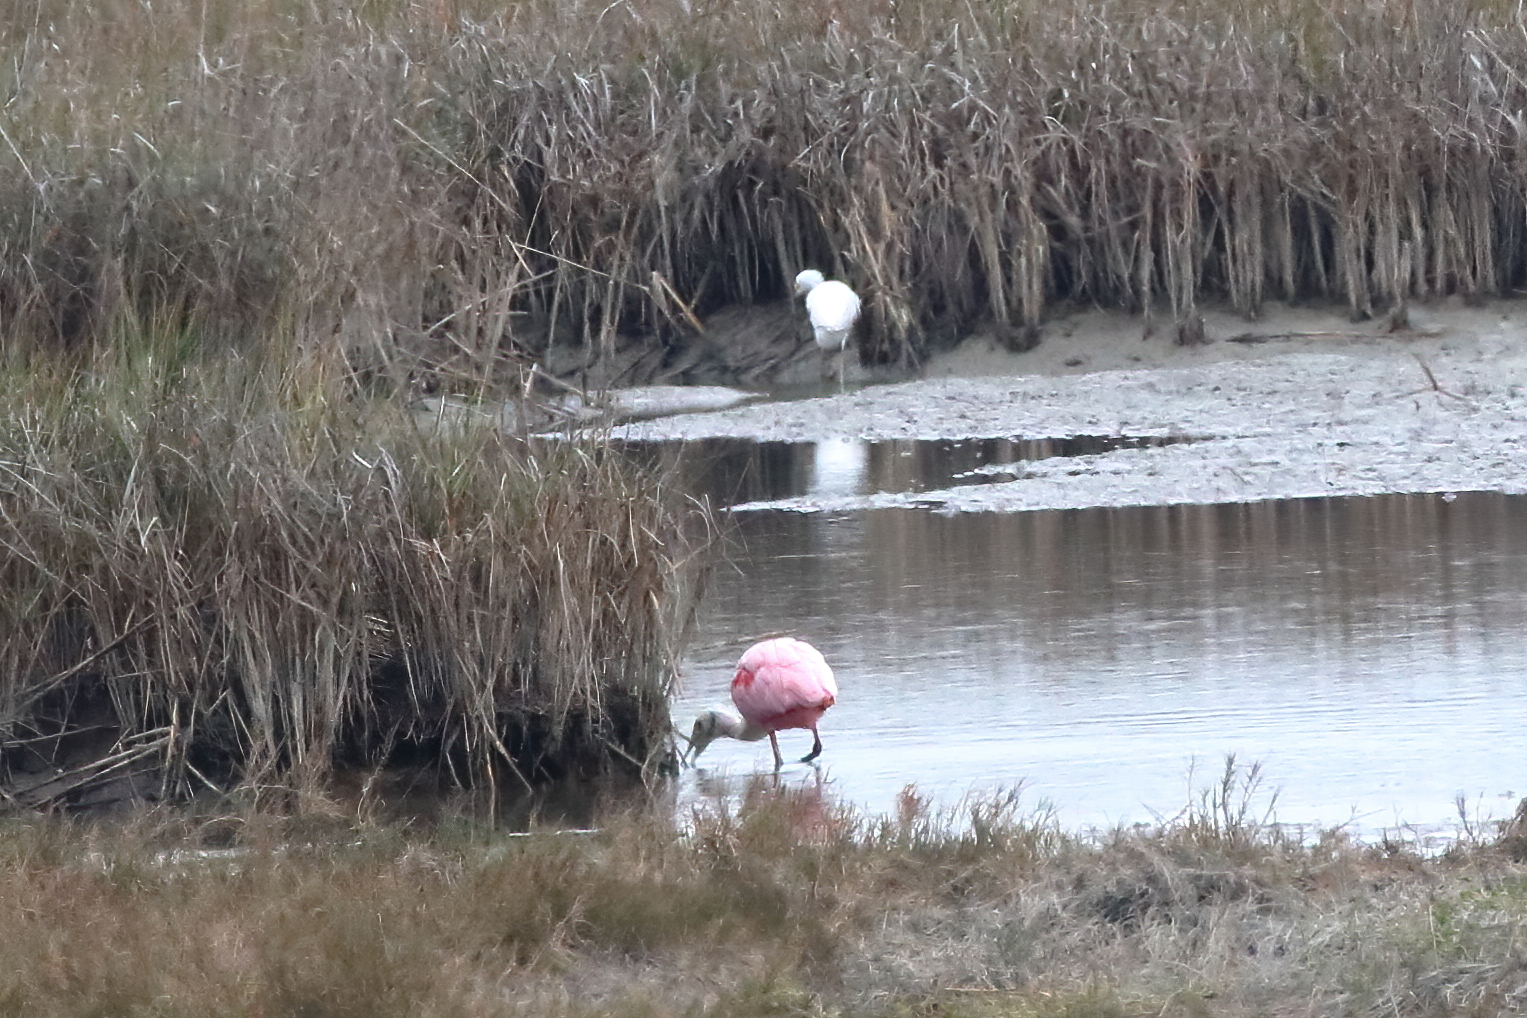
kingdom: Animalia
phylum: Chordata
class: Aves
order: Pelecaniformes
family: Threskiornithidae
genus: Platalea
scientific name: Platalea ajaja
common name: Roseate spoonbill
